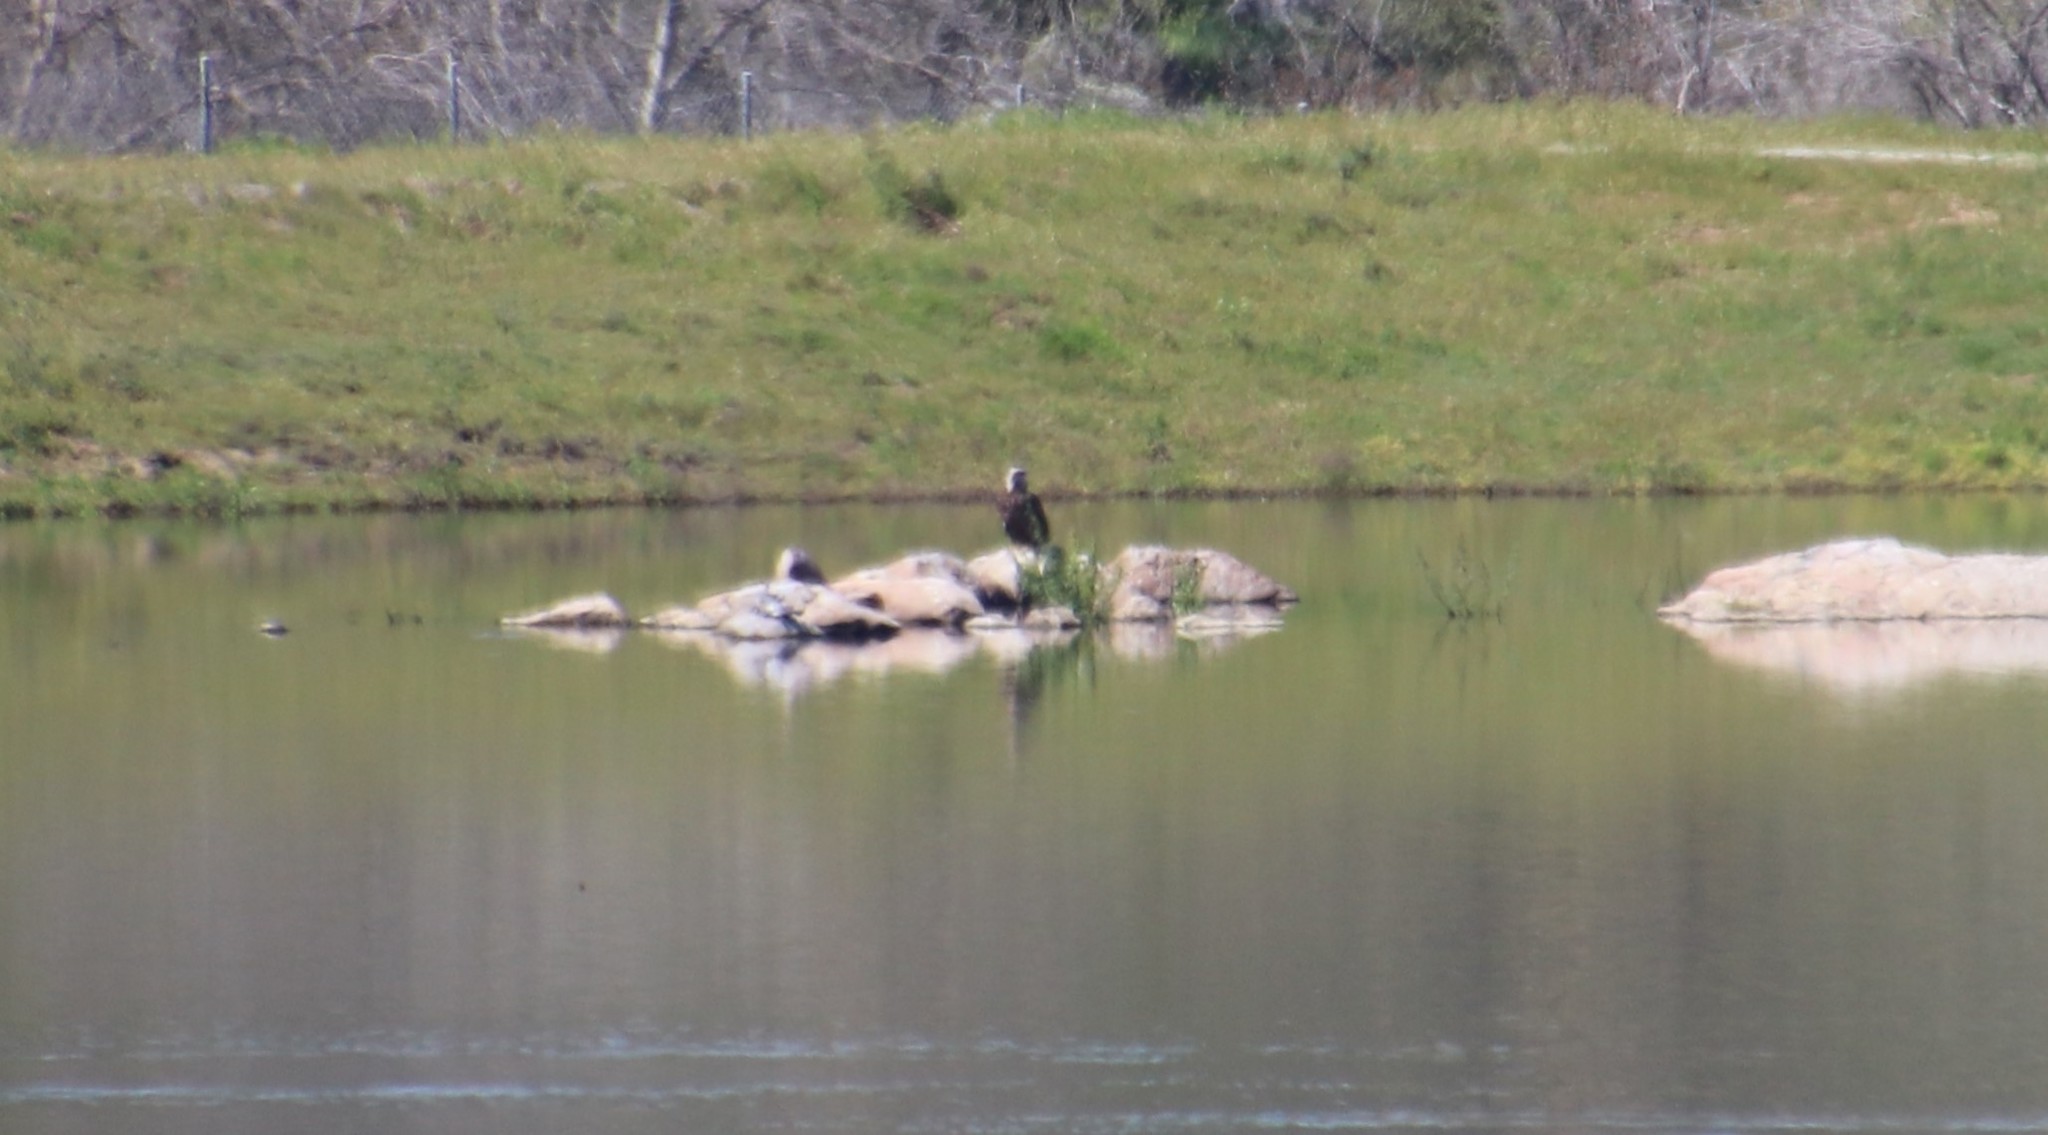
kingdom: Animalia
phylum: Chordata
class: Aves
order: Accipitriformes
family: Accipitridae
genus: Haliaeetus
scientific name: Haliaeetus leucocephalus
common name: Bald eagle
